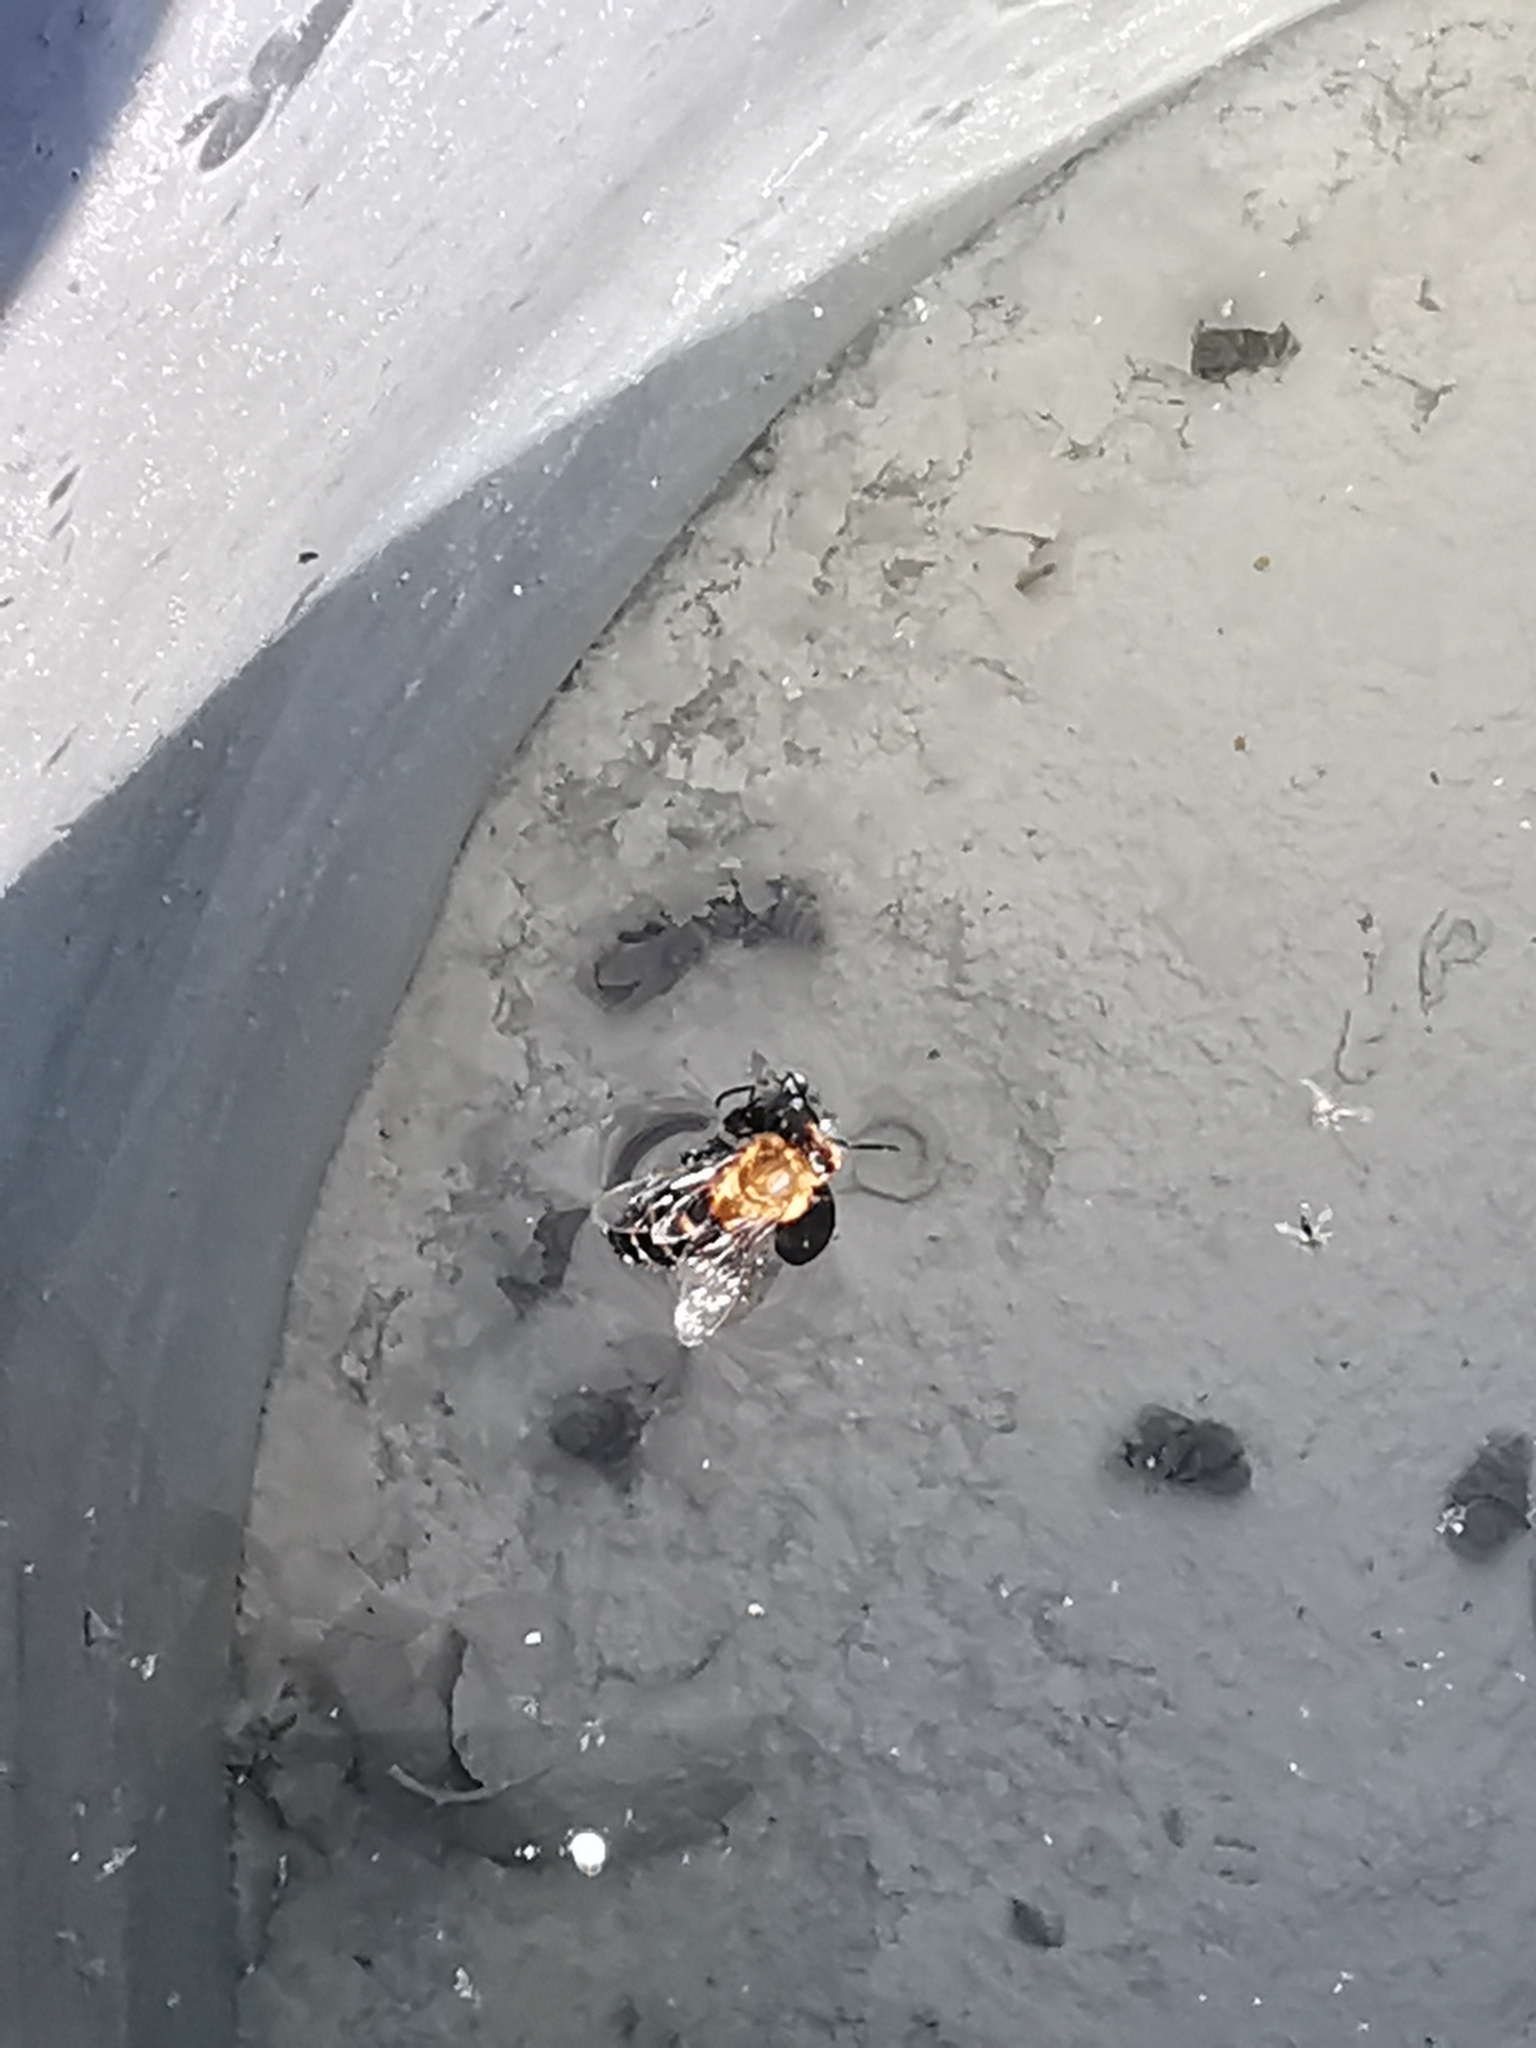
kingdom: Animalia
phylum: Arthropoda
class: Insecta
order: Hymenoptera
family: Apidae
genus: Apis
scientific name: Apis mellifera
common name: Honey bee
